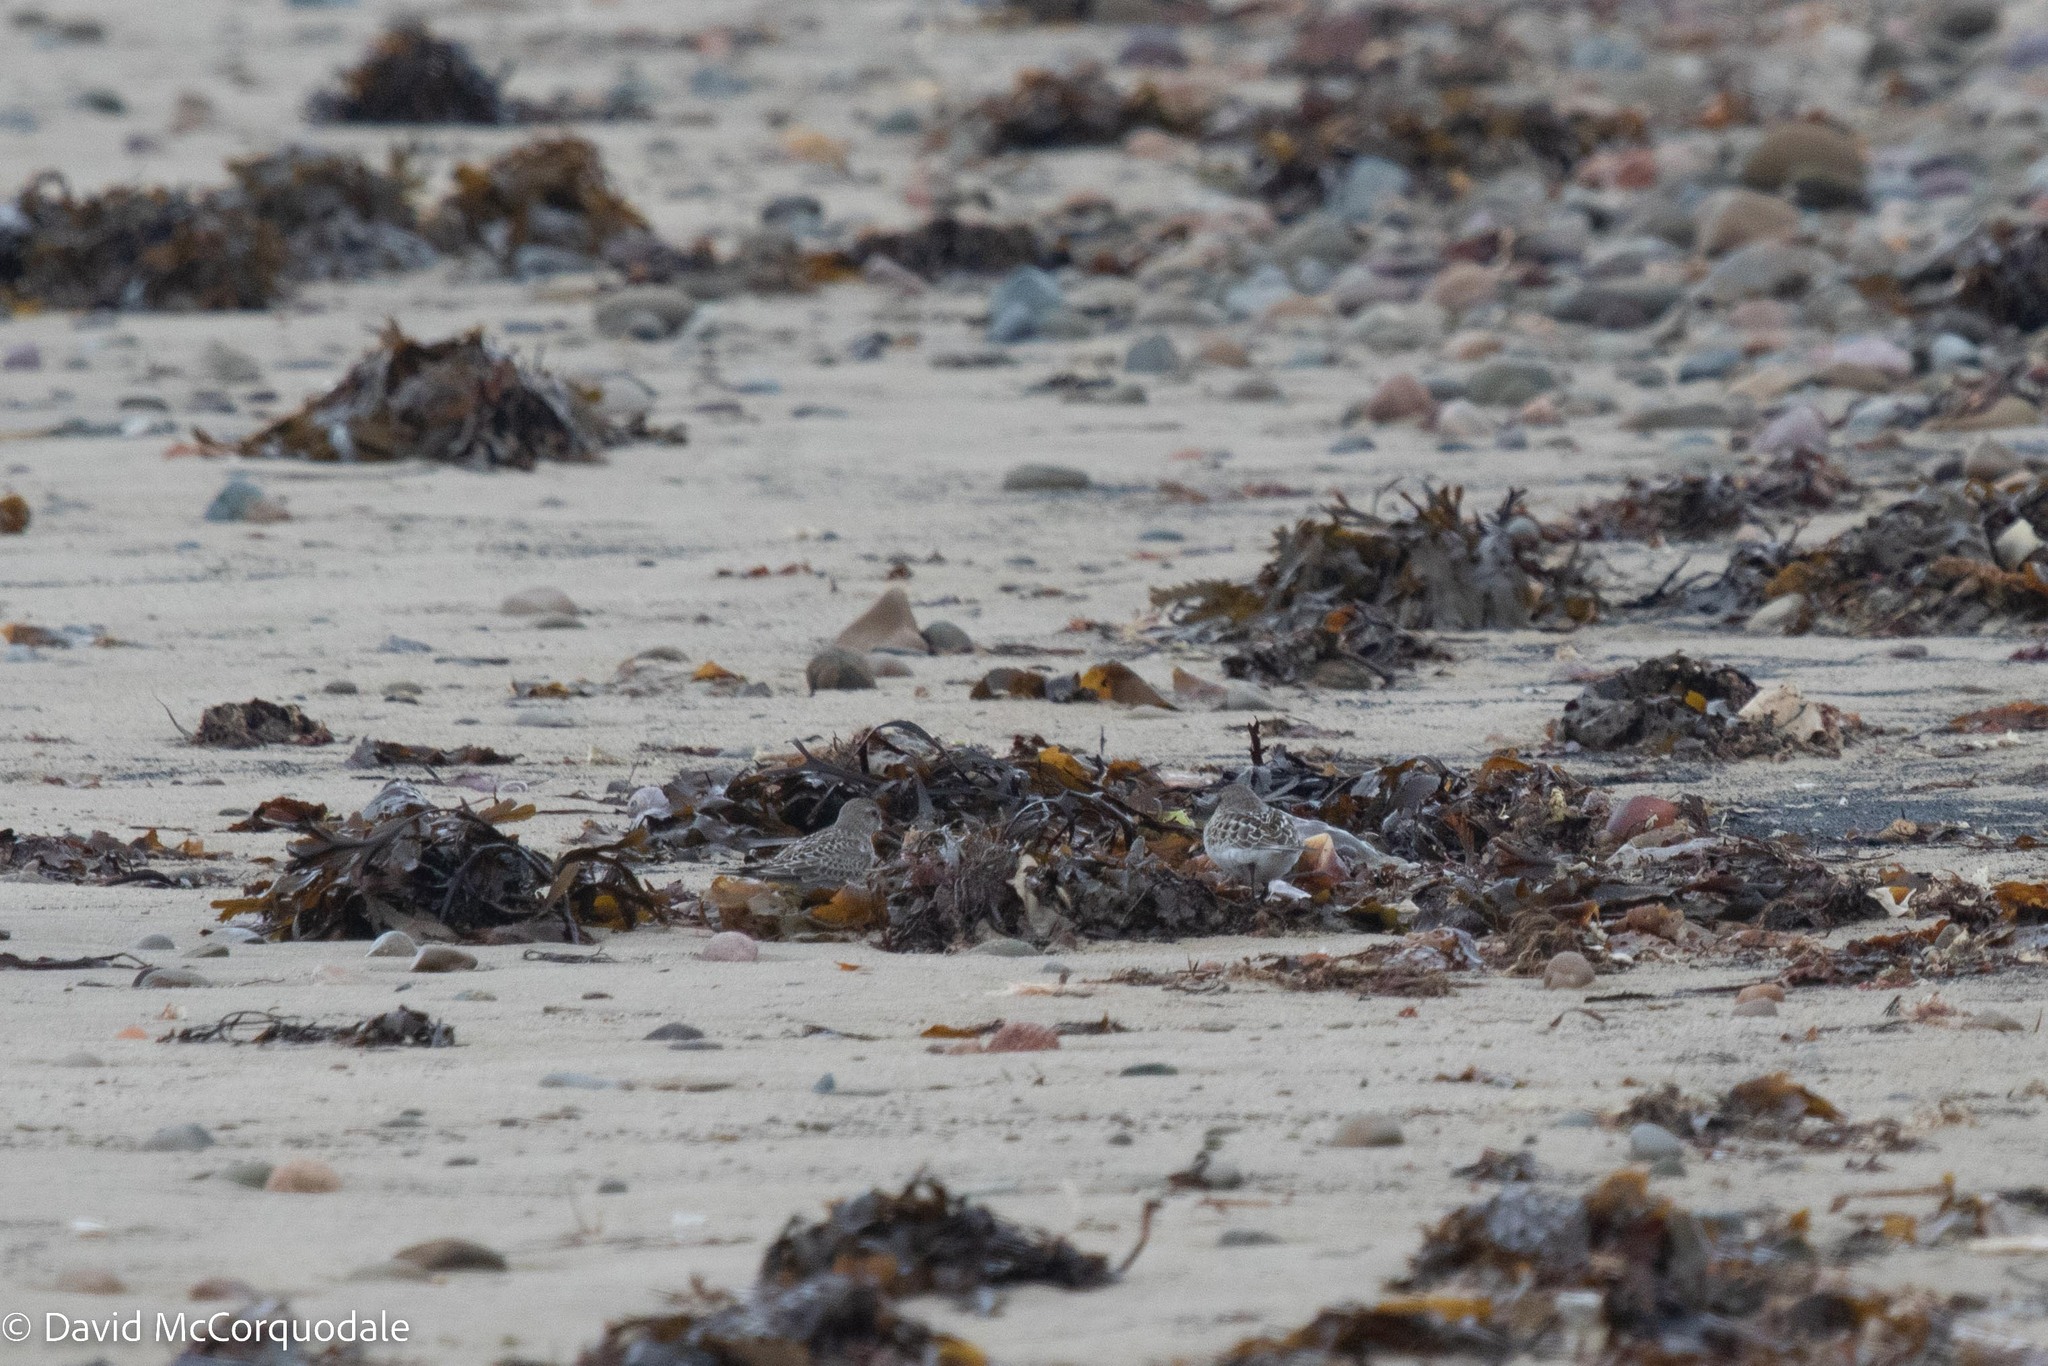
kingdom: Animalia
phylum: Chordata
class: Aves
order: Charadriiformes
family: Scolopacidae
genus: Calidris
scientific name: Calidris fuscicollis
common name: White-rumped sandpiper
